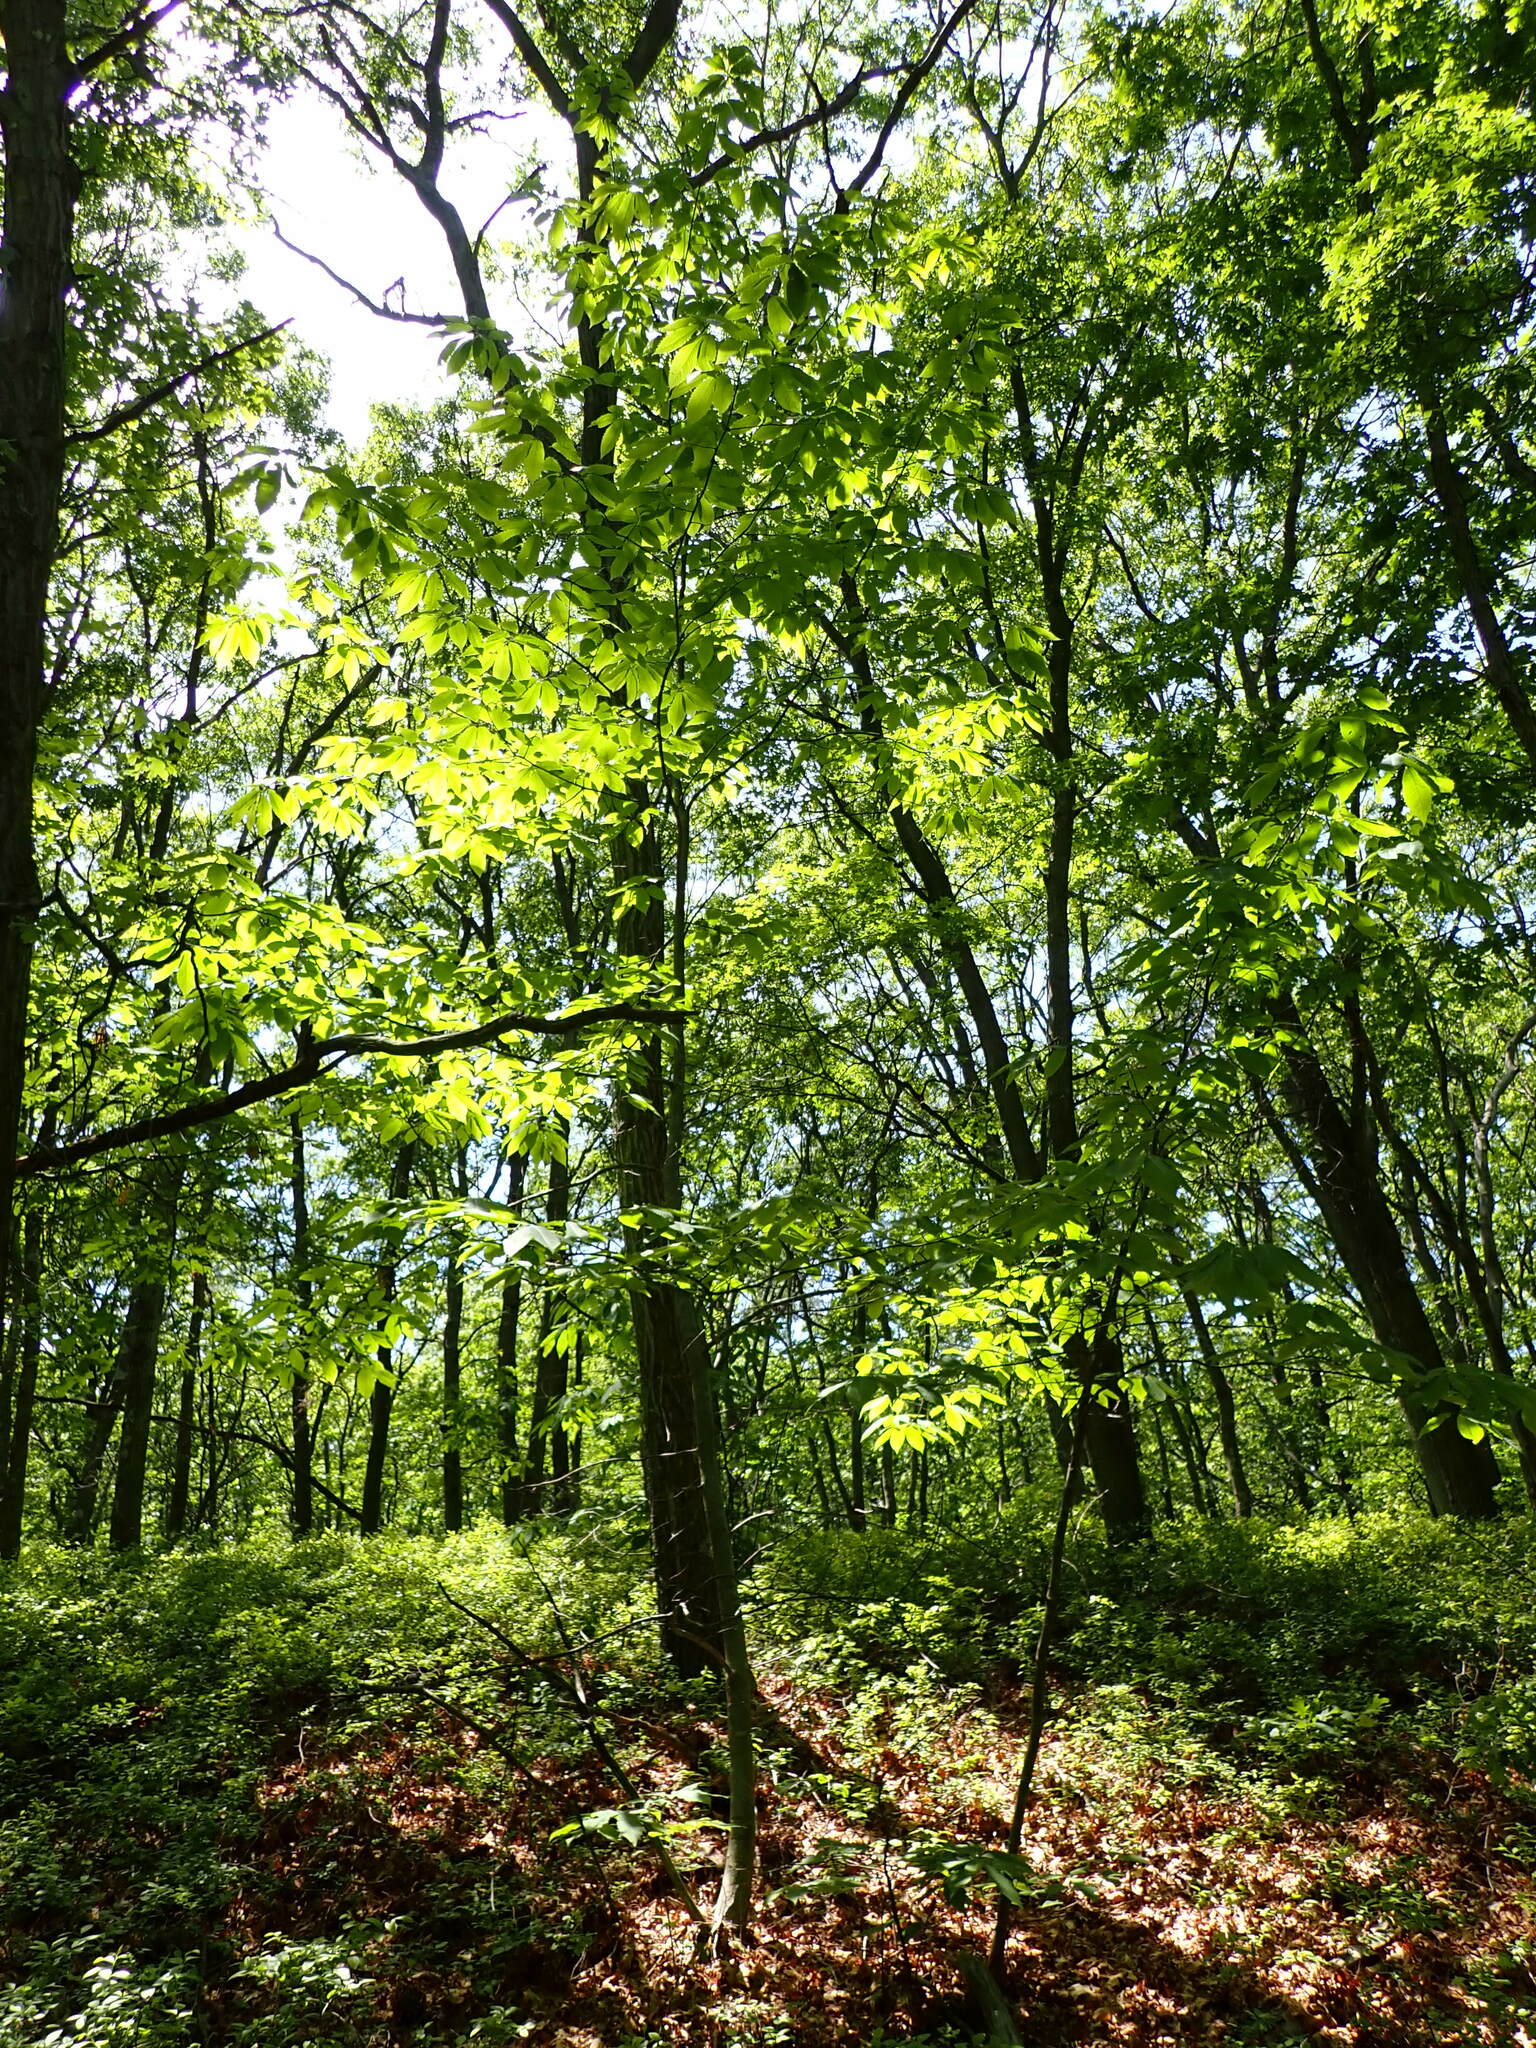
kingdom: Plantae
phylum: Tracheophyta
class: Magnoliopsida
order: Fagales
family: Fagaceae
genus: Castanea
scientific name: Castanea dentata
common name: American chestnut
